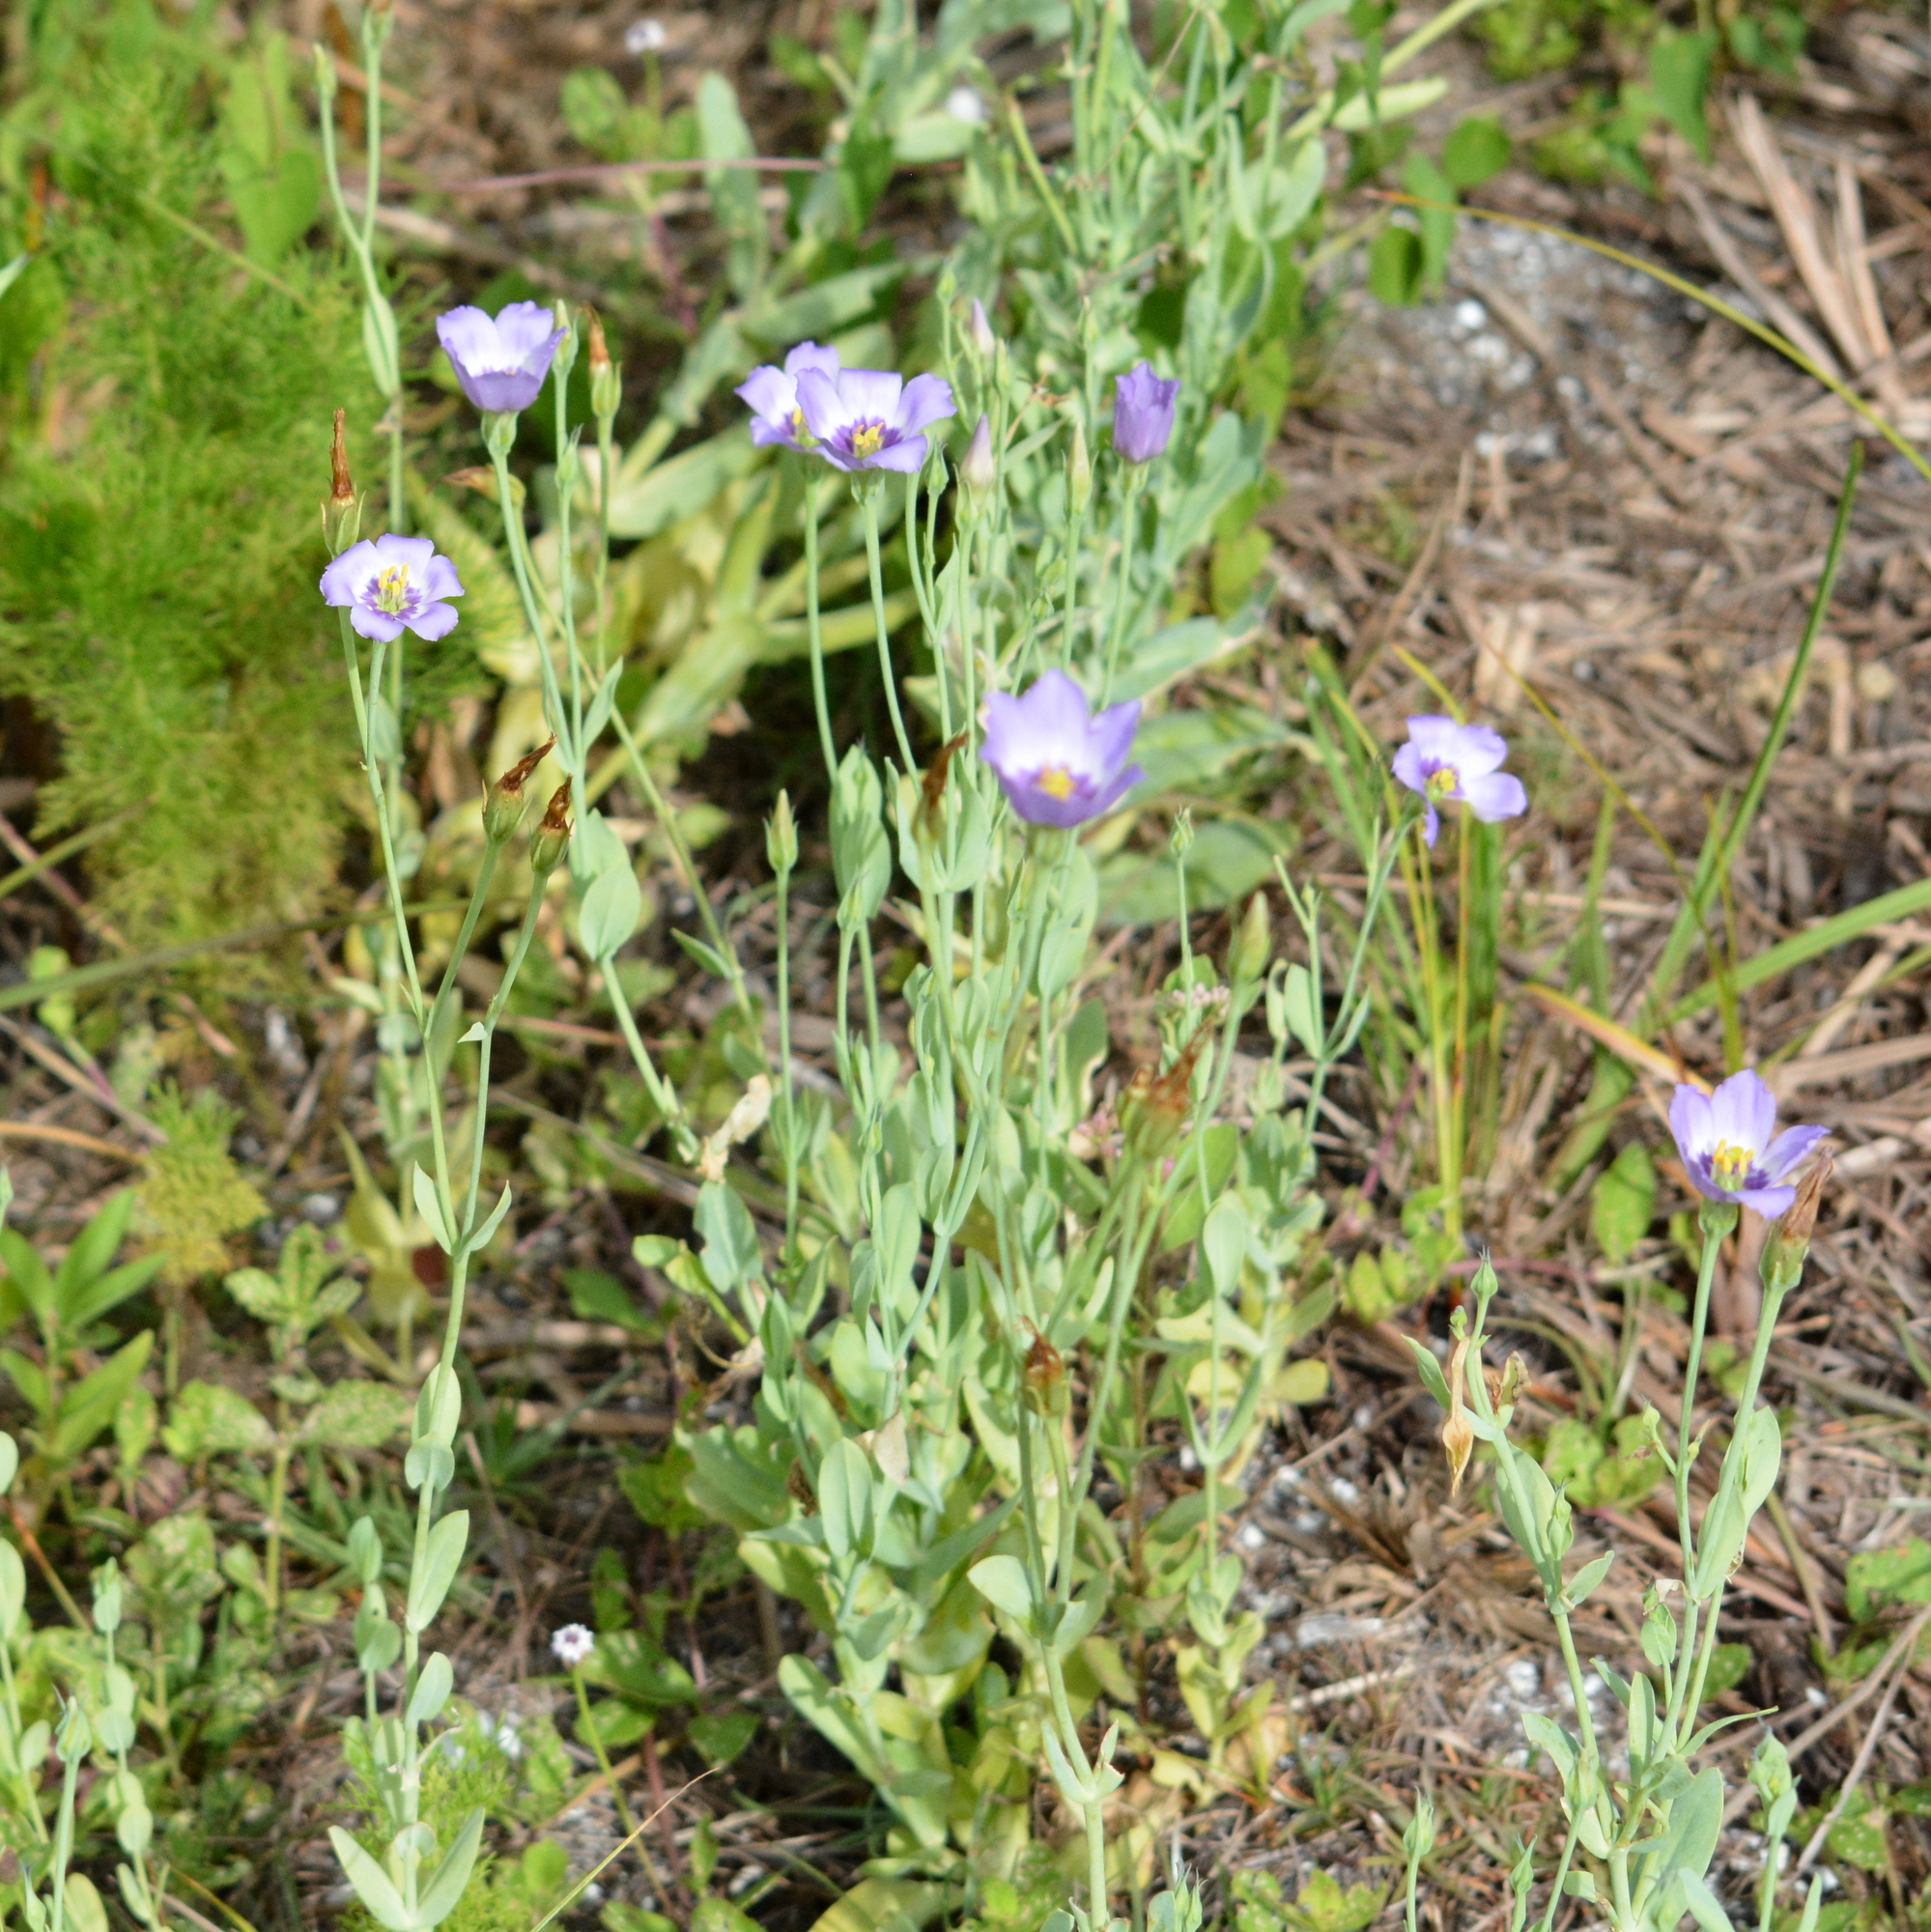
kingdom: Plantae
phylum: Tracheophyta
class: Magnoliopsida
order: Gentianales
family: Gentianaceae
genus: Eustoma
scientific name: Eustoma exaltatum
